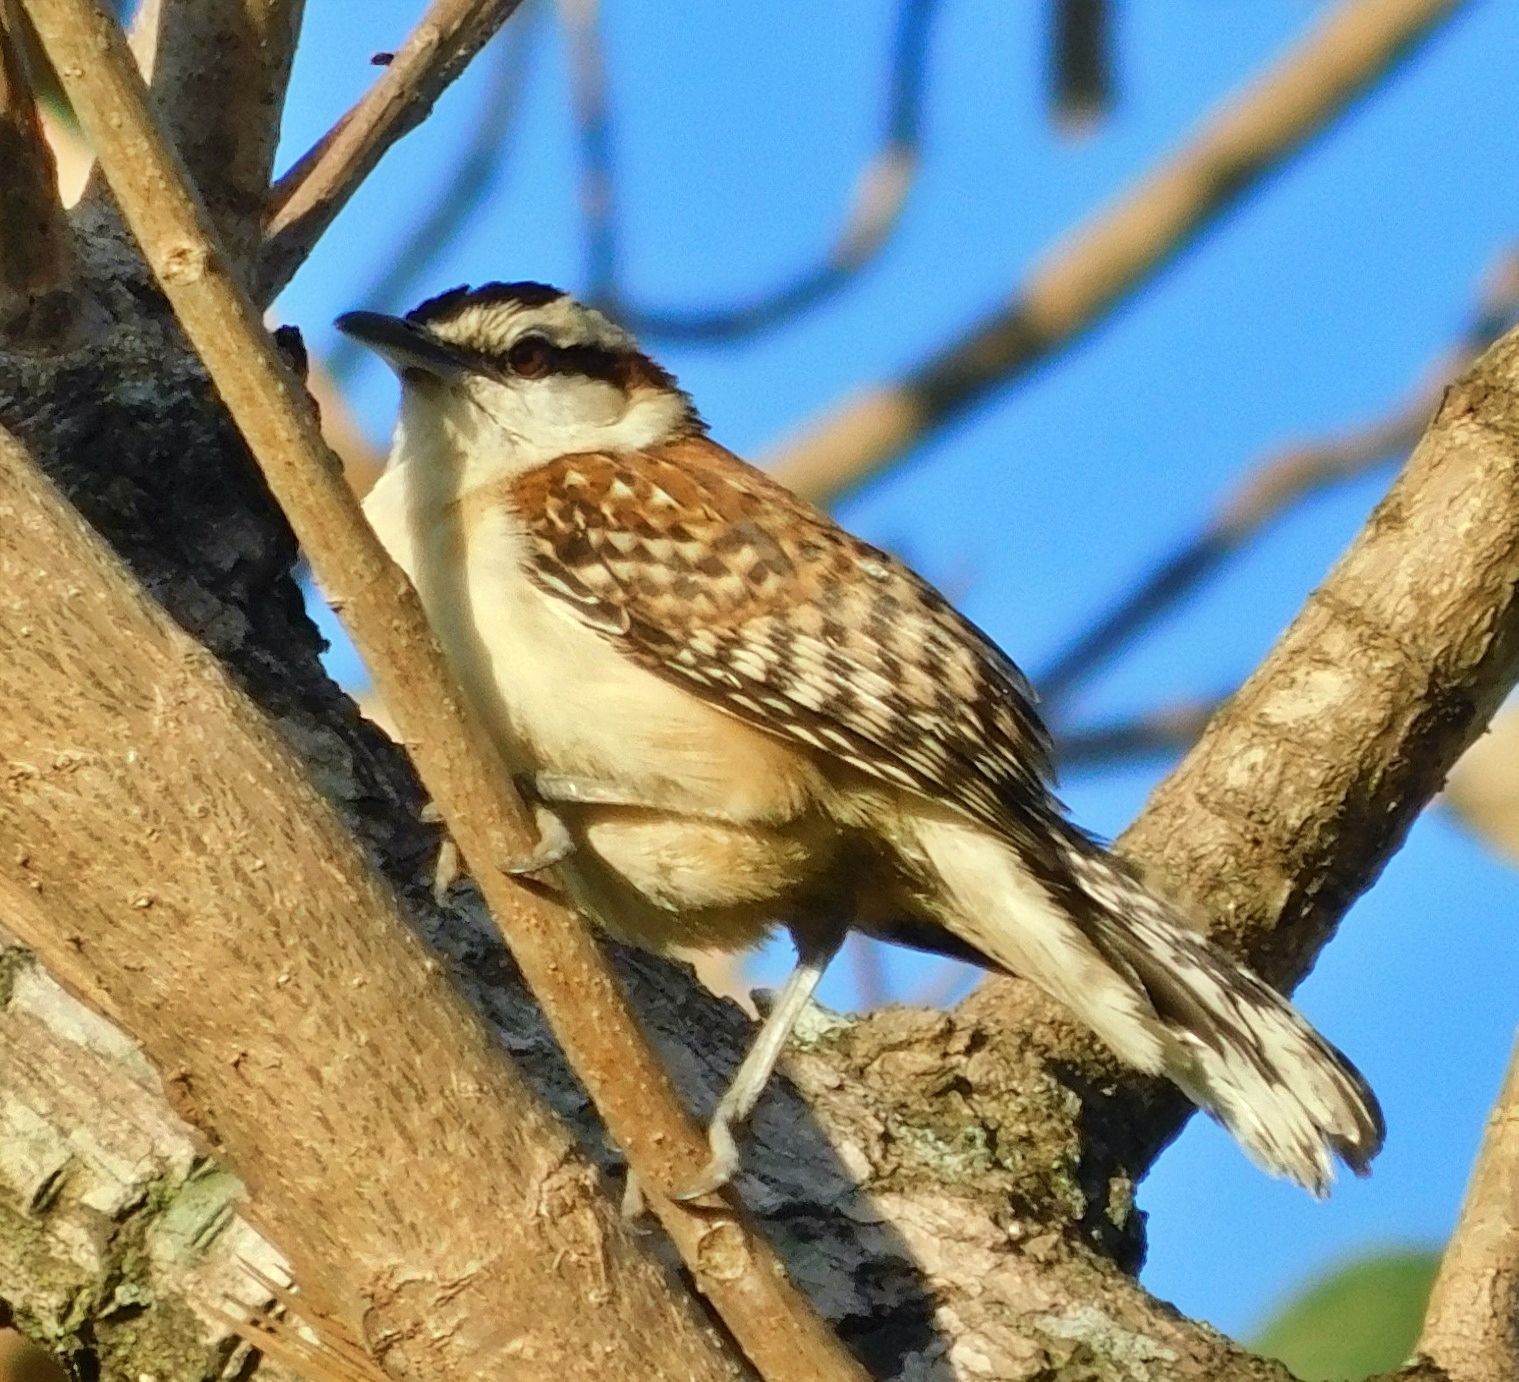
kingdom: Animalia
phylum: Chordata
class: Aves
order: Passeriformes
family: Troglodytidae
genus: Campylorhynchus
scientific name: Campylorhynchus rufinucha
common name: Rufous-naped wren
